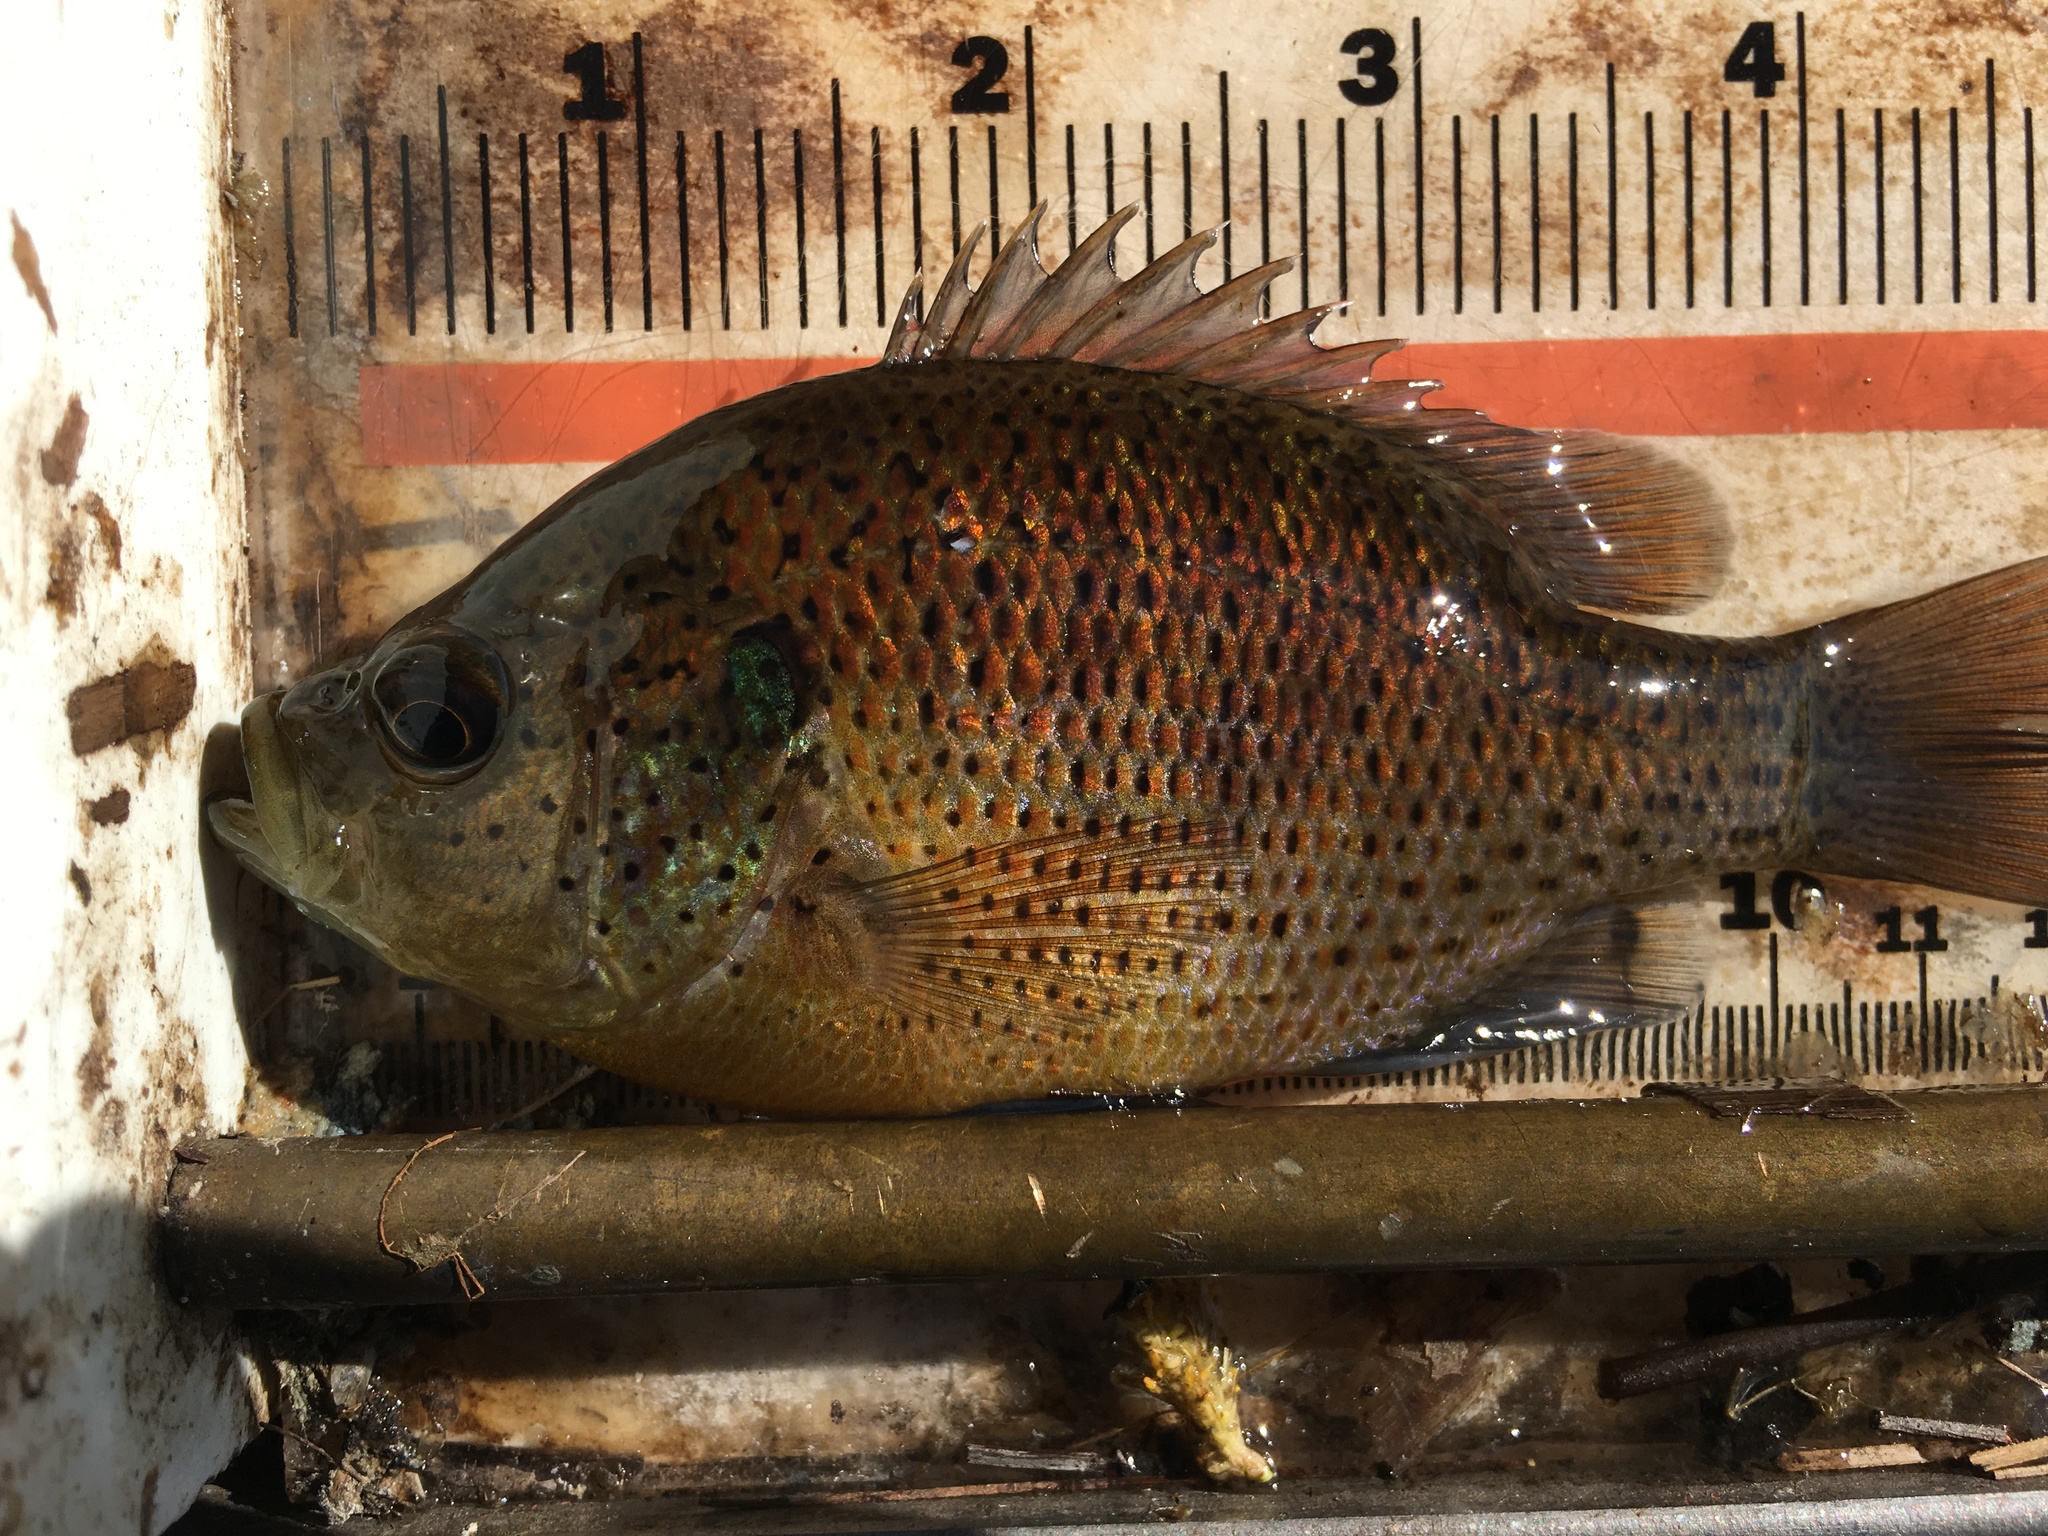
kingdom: Animalia
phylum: Chordata
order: Perciformes
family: Centrarchidae
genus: Lepomis
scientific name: Lepomis punctatus
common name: Spotted sunfish
